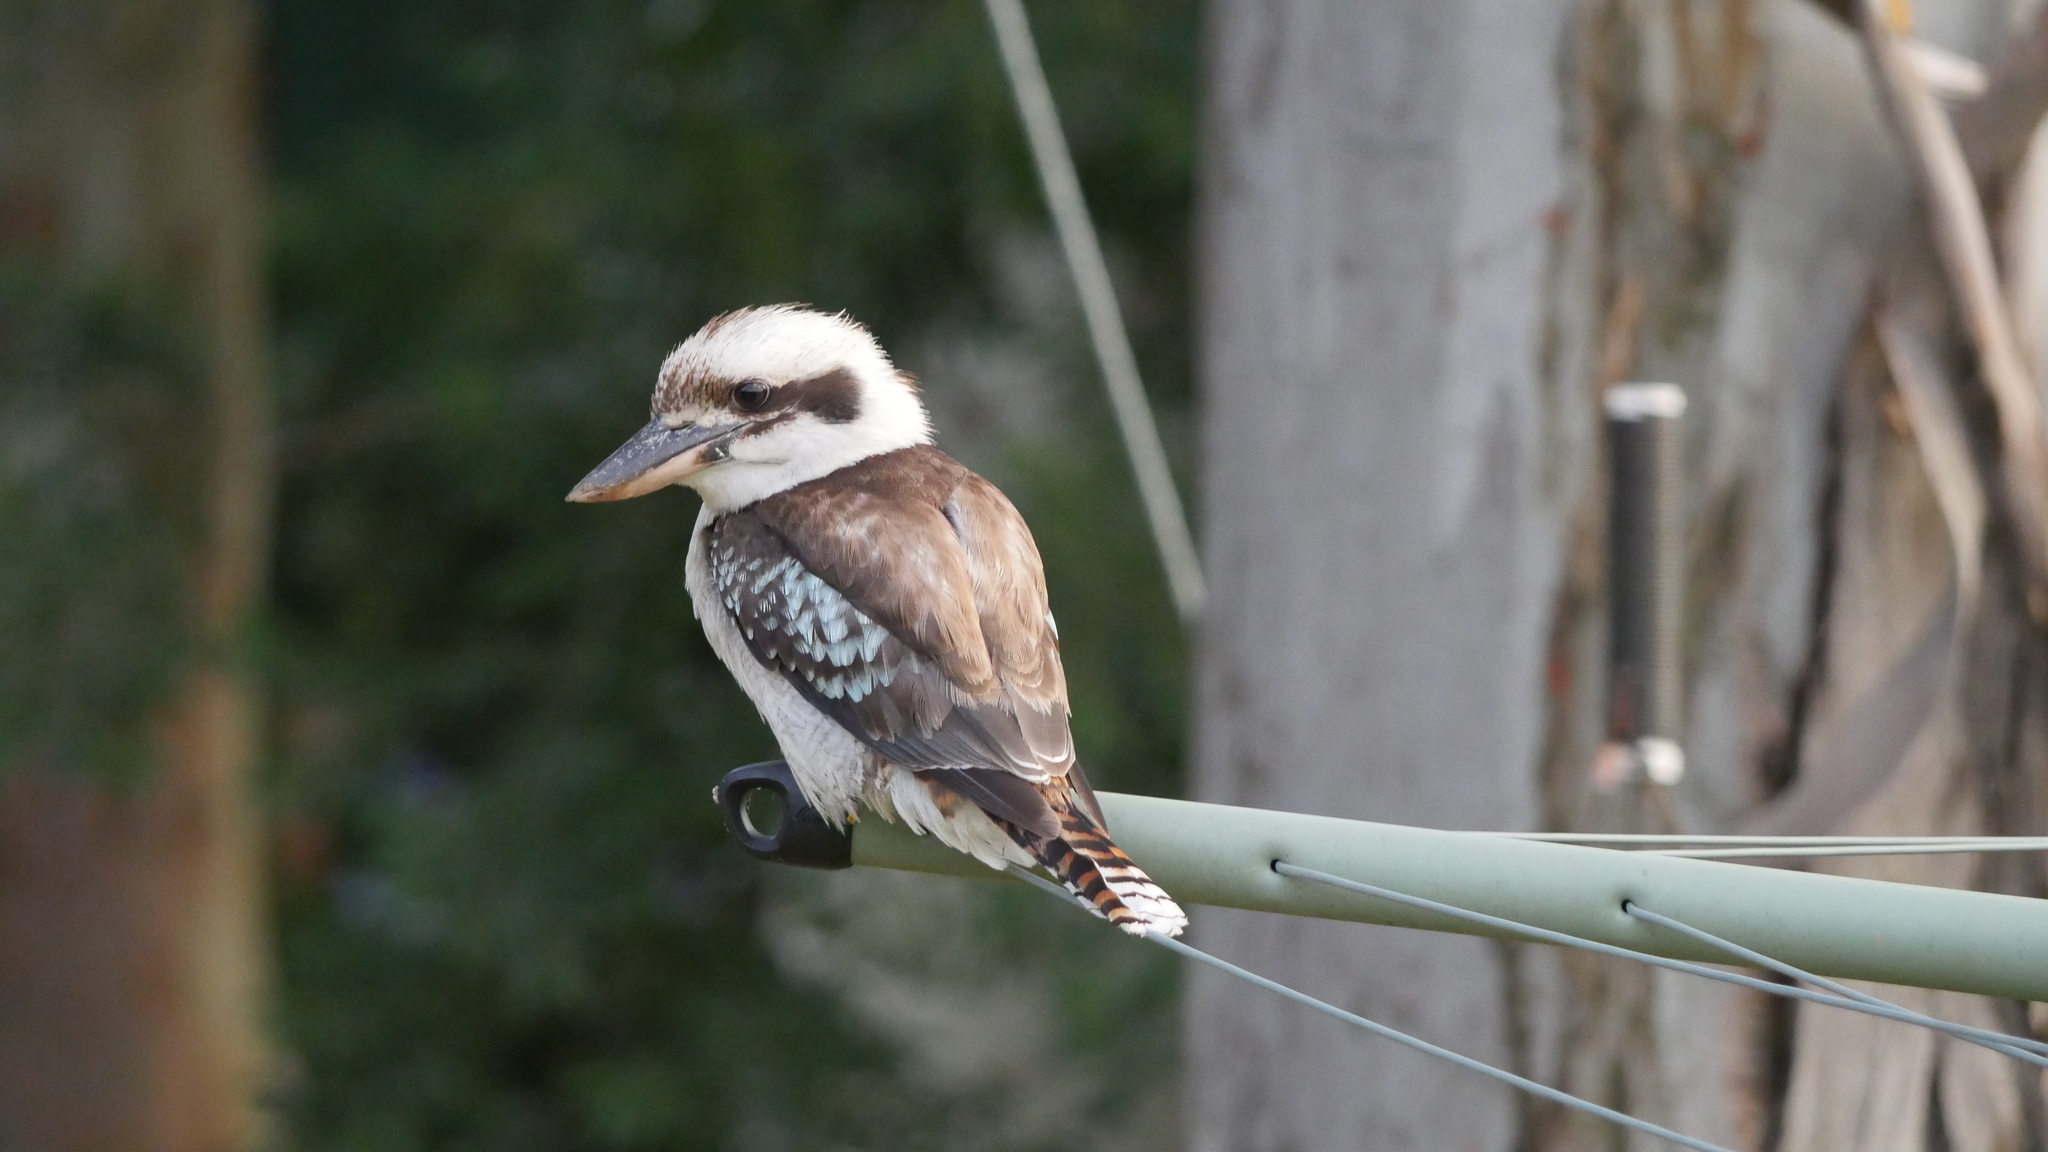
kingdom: Animalia
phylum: Chordata
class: Aves
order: Coraciiformes
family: Alcedinidae
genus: Dacelo
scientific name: Dacelo novaeguineae
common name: Laughing kookaburra
